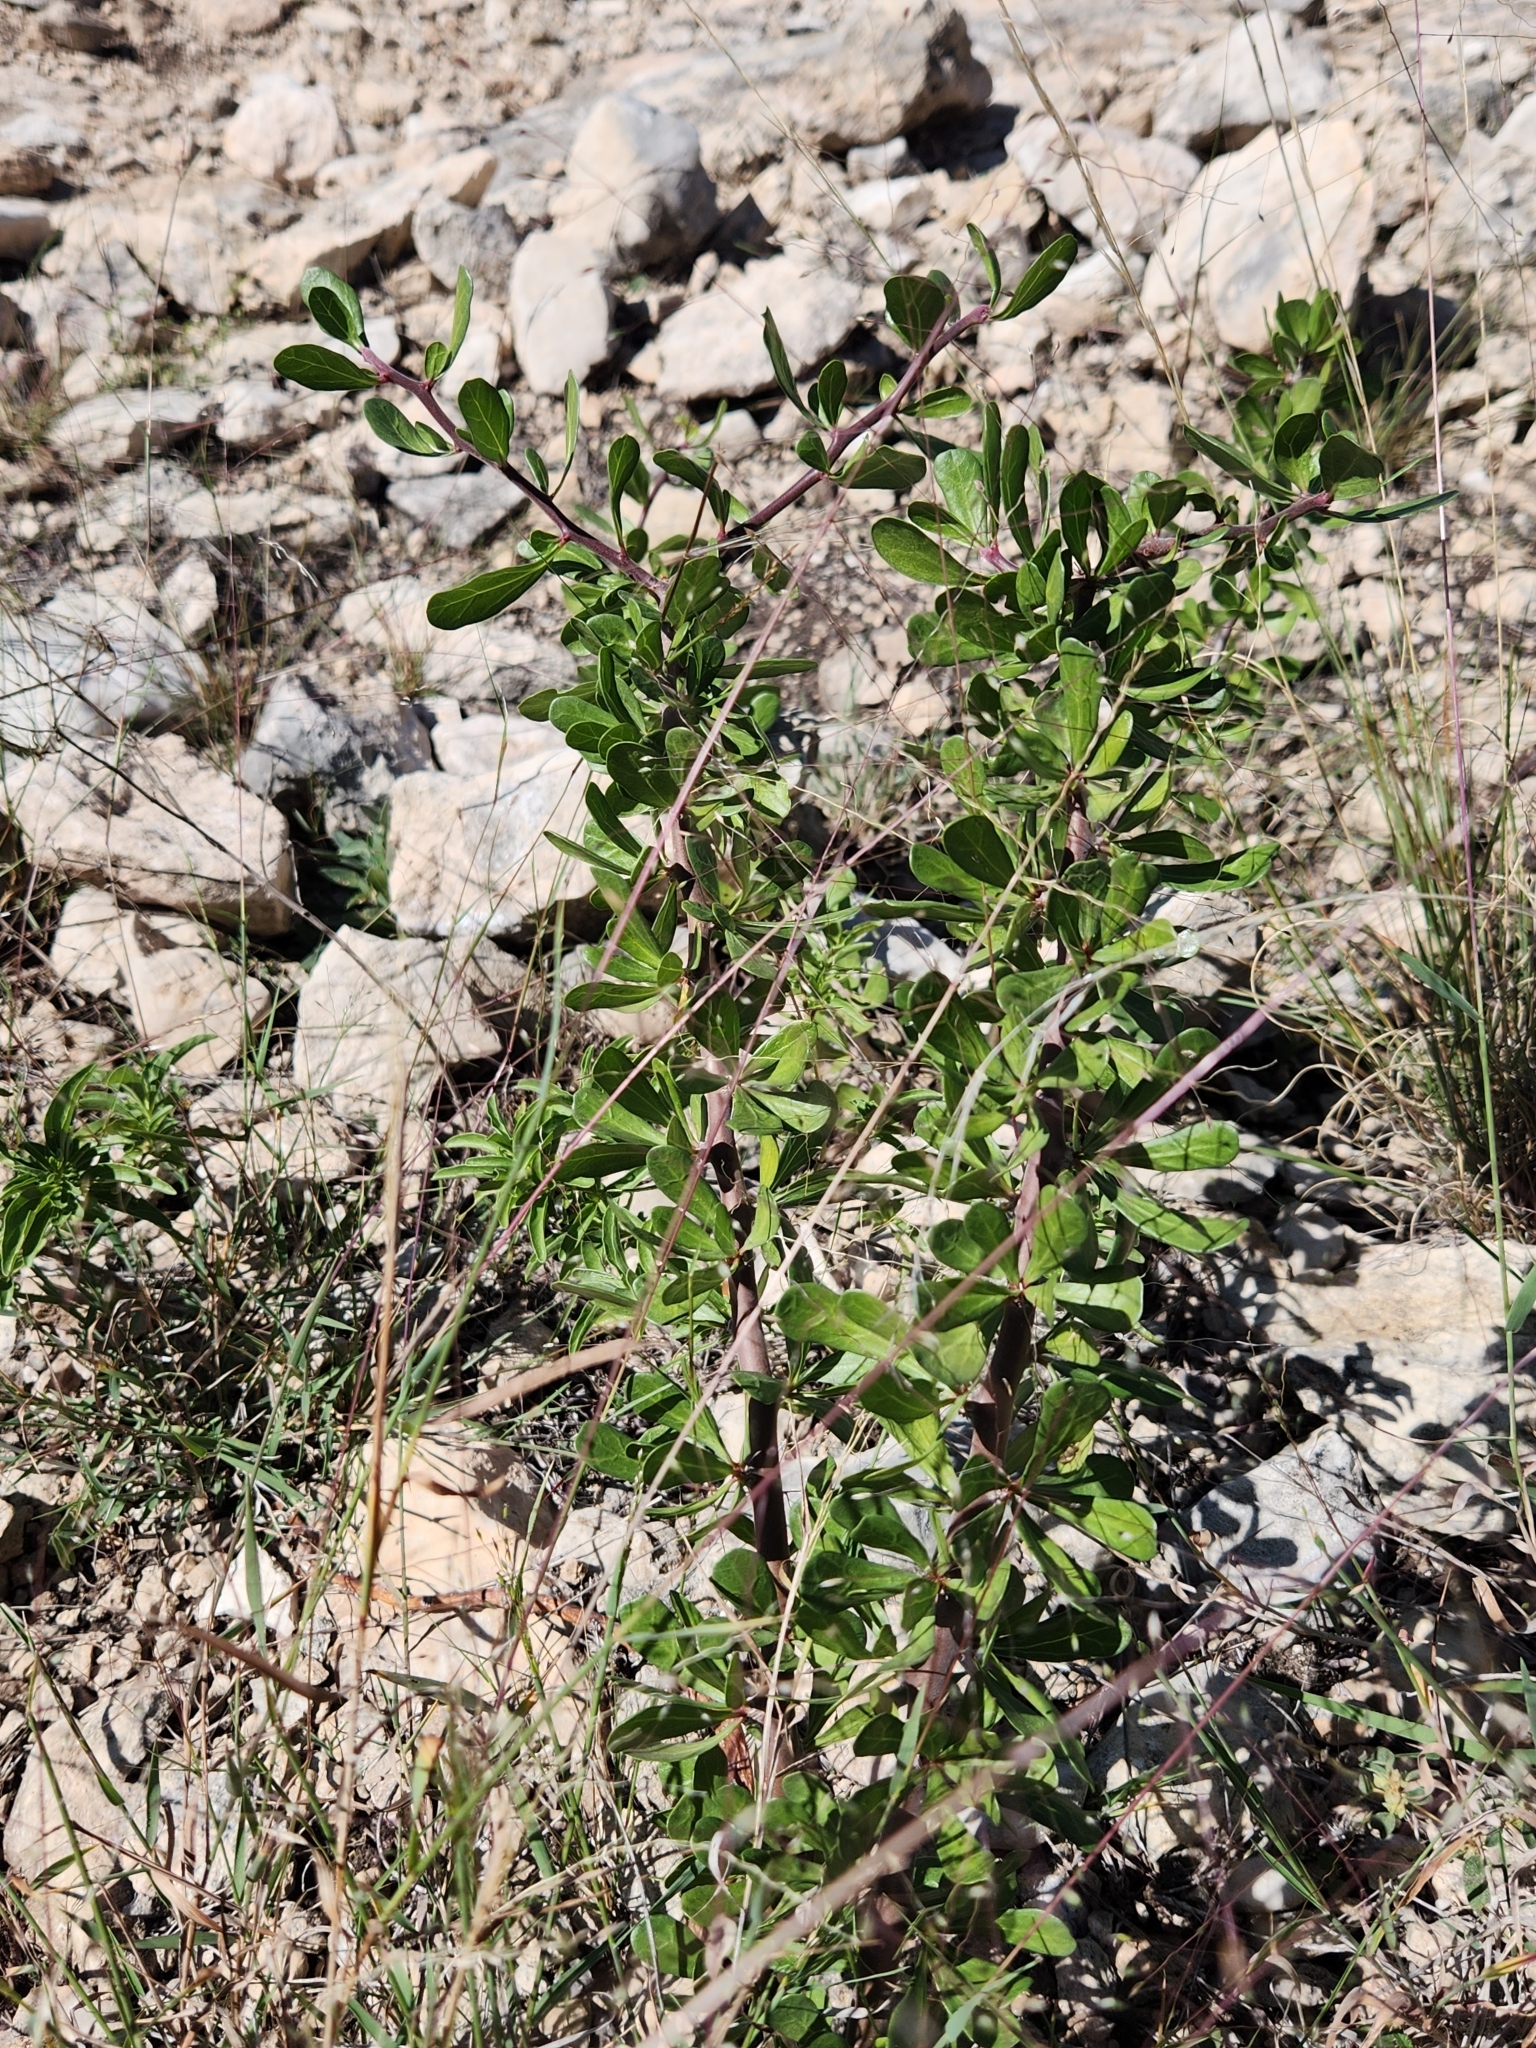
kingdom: Plantae
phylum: Tracheophyta
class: Magnoliopsida
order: Malpighiales
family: Euphorbiaceae
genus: Jatropha
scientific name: Jatropha dioica
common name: Leatherstem
